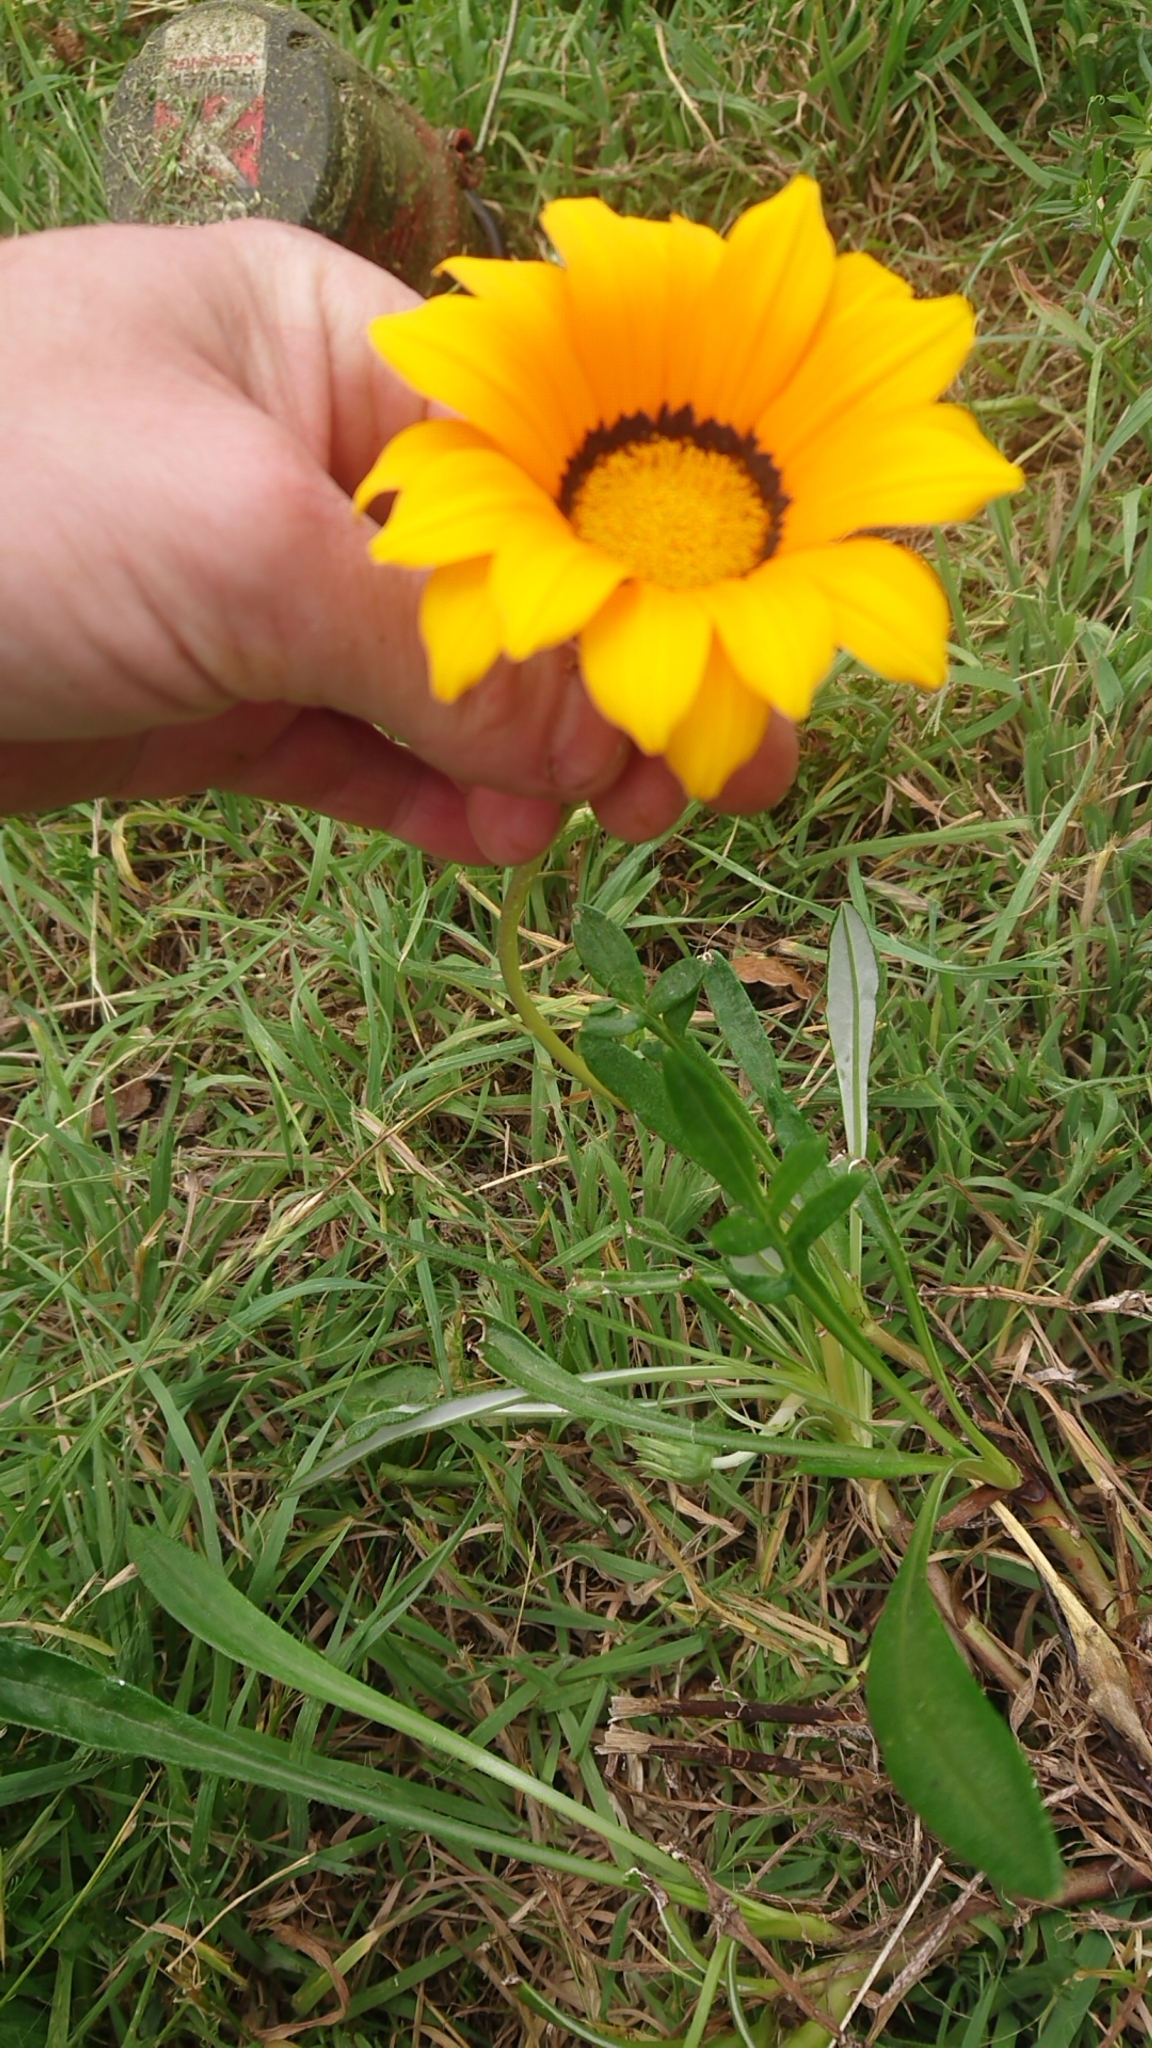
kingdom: Plantae
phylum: Tracheophyta
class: Magnoliopsida
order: Asterales
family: Asteraceae
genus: Gazania
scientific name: Gazania splendens
